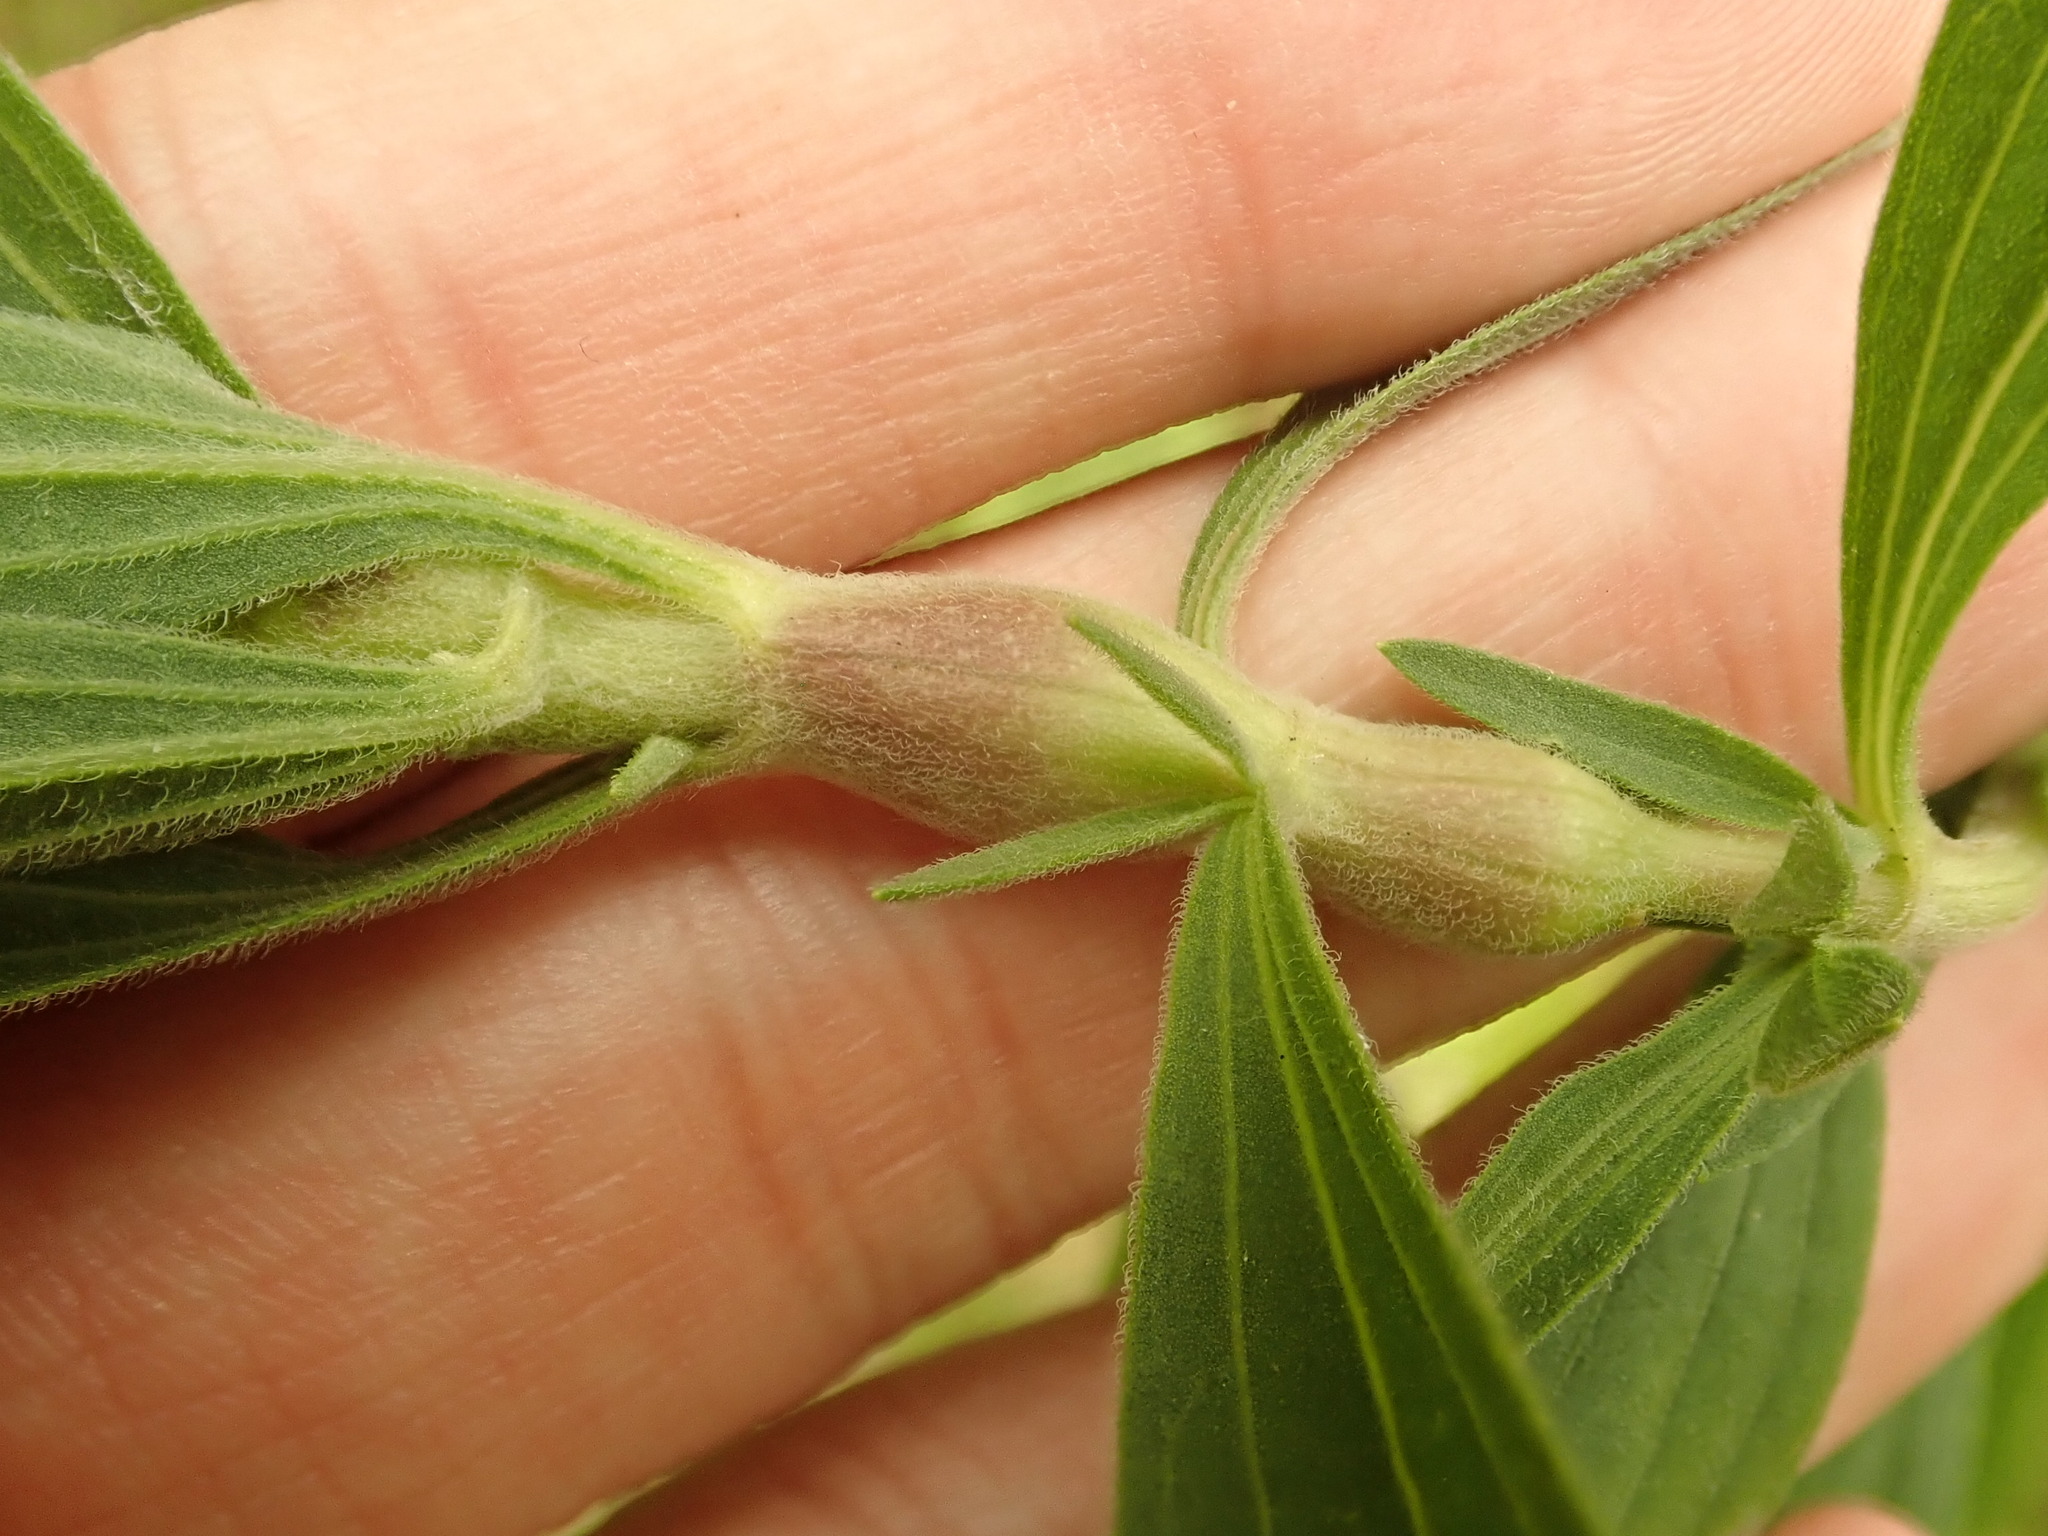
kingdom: Animalia
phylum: Arthropoda
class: Insecta
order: Diptera
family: Cecidomyiidae
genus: Neolasioptera
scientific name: Neolasioptera perfoliata
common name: Boneset stem midge
